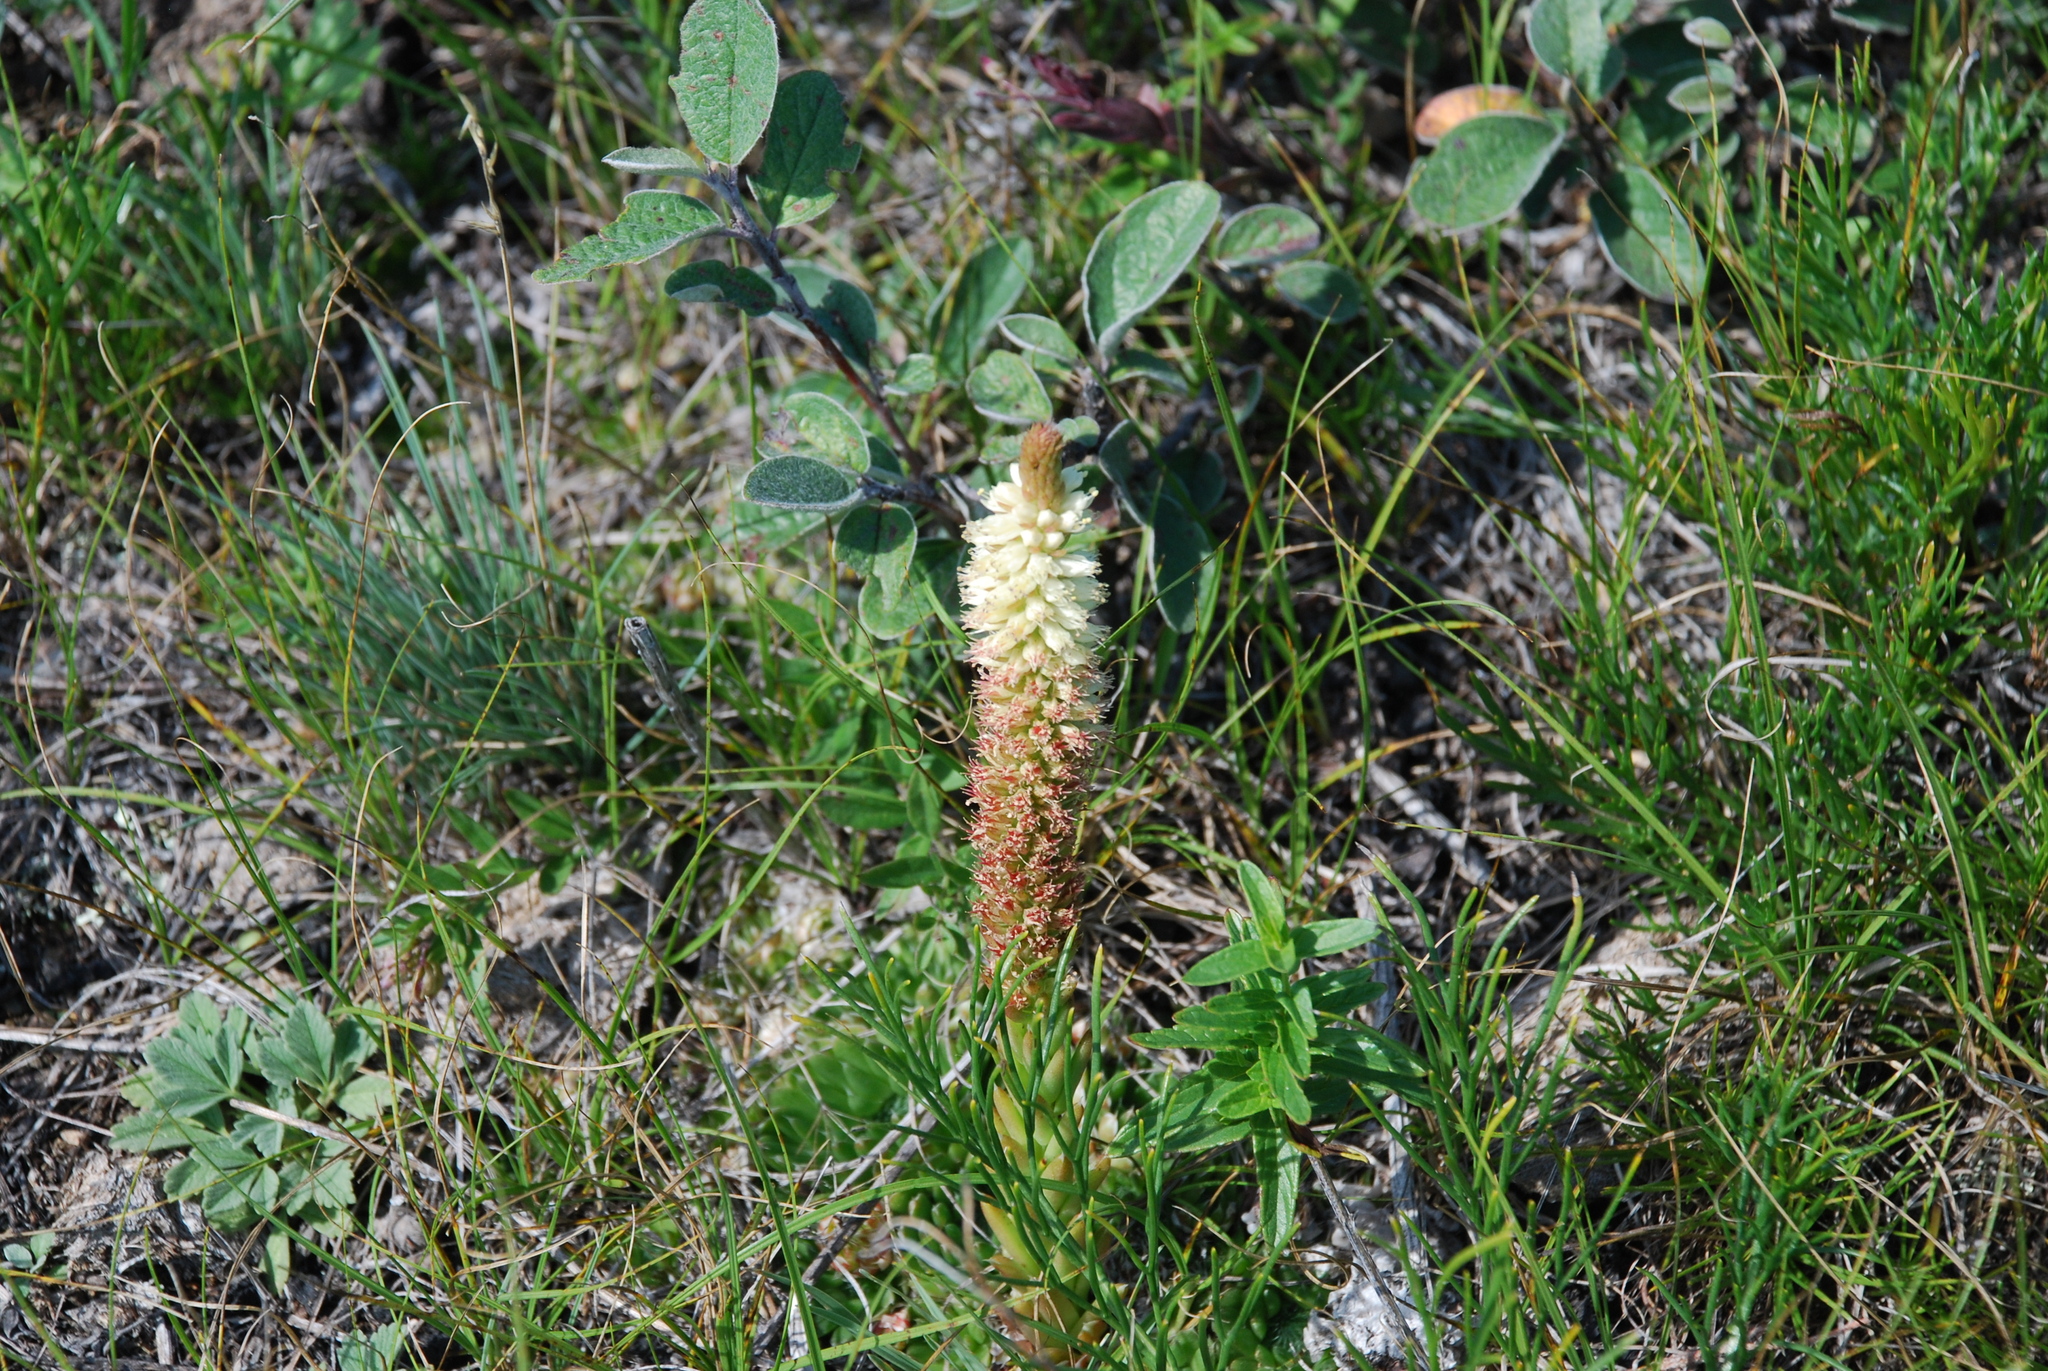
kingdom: Plantae
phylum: Tracheophyta
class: Magnoliopsida
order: Saxifragales
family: Crassulaceae
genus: Orostachys
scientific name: Orostachys spinosa
